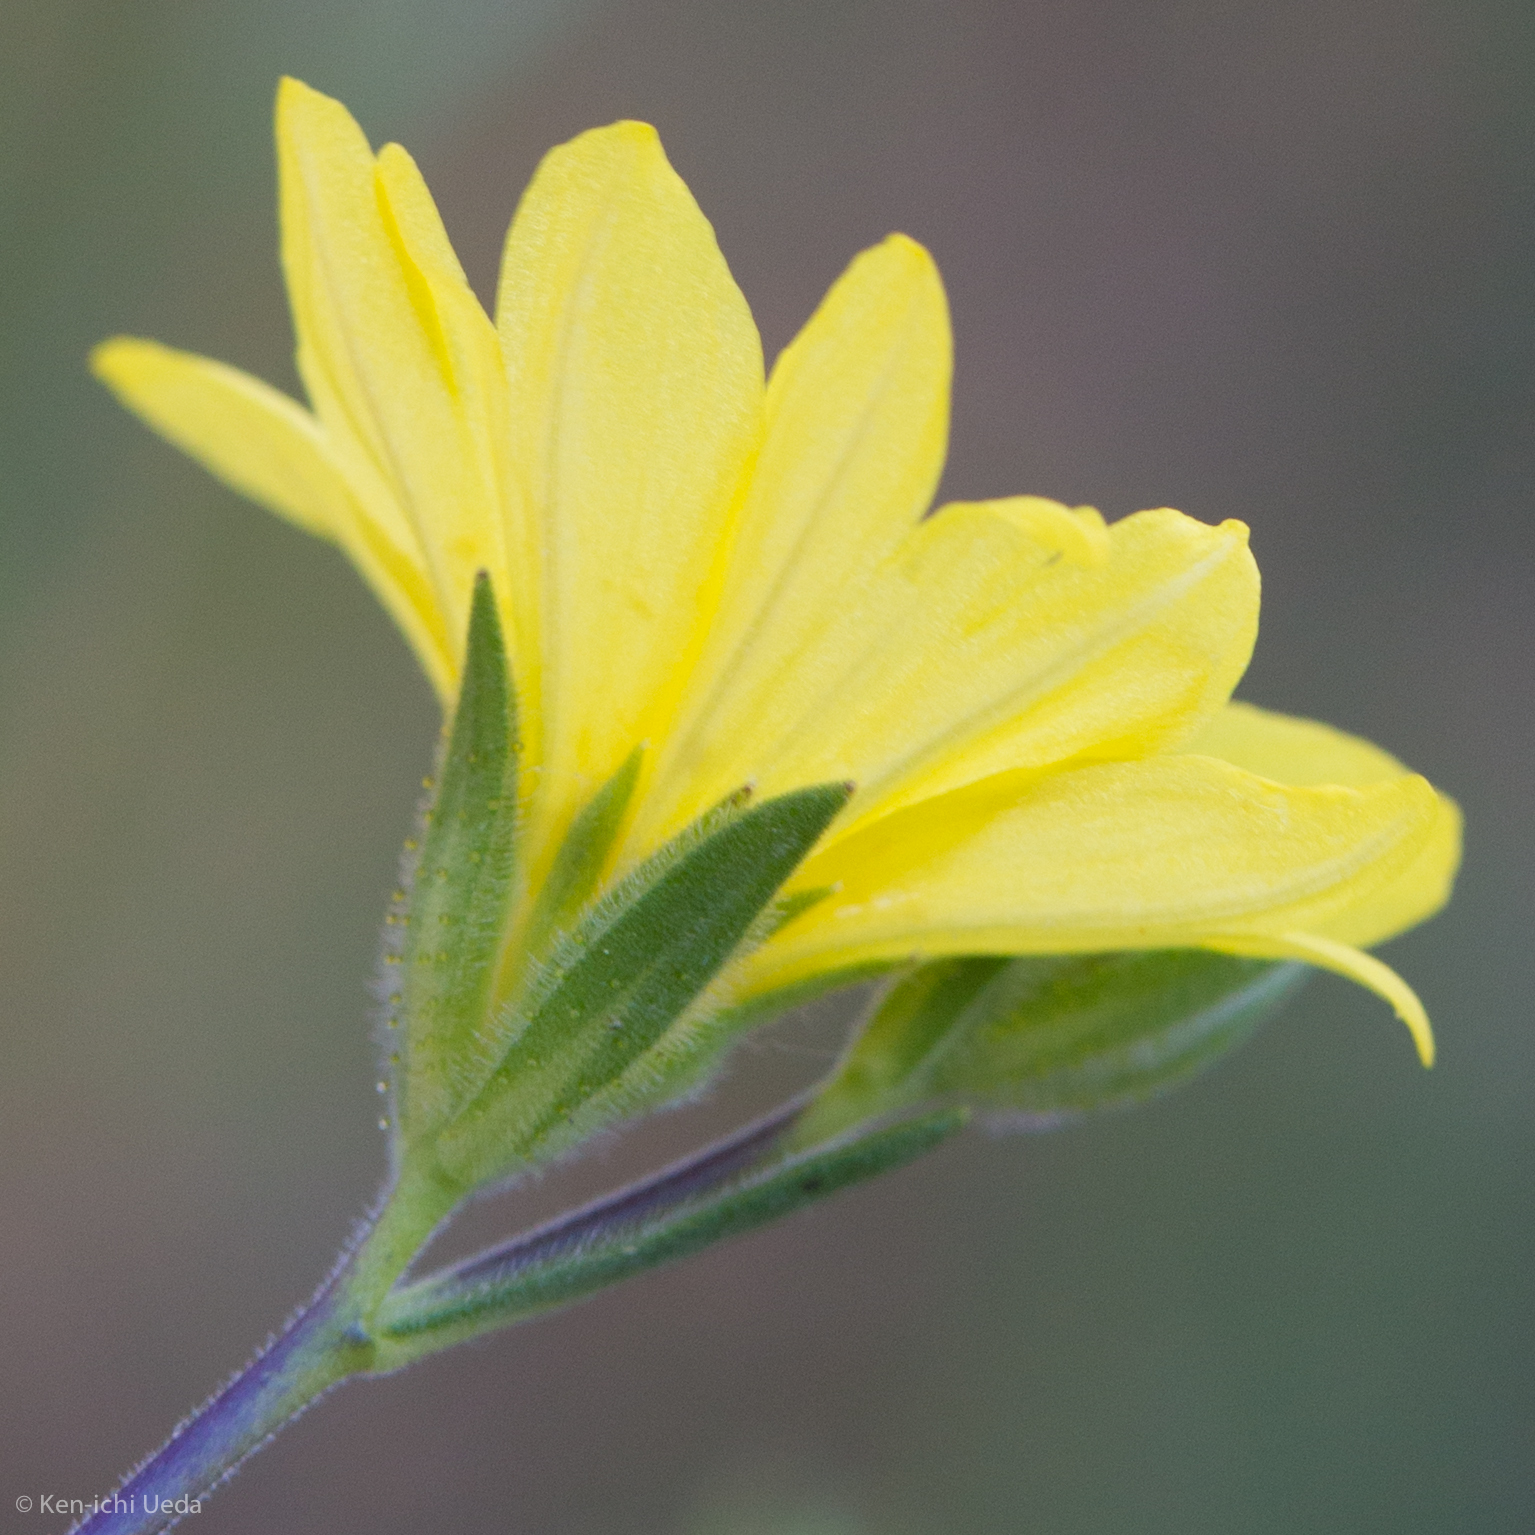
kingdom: Plantae
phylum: Tracheophyta
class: Magnoliopsida
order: Asterales
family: Asteraceae
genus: Lagophylla
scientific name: Lagophylla glandulosa
